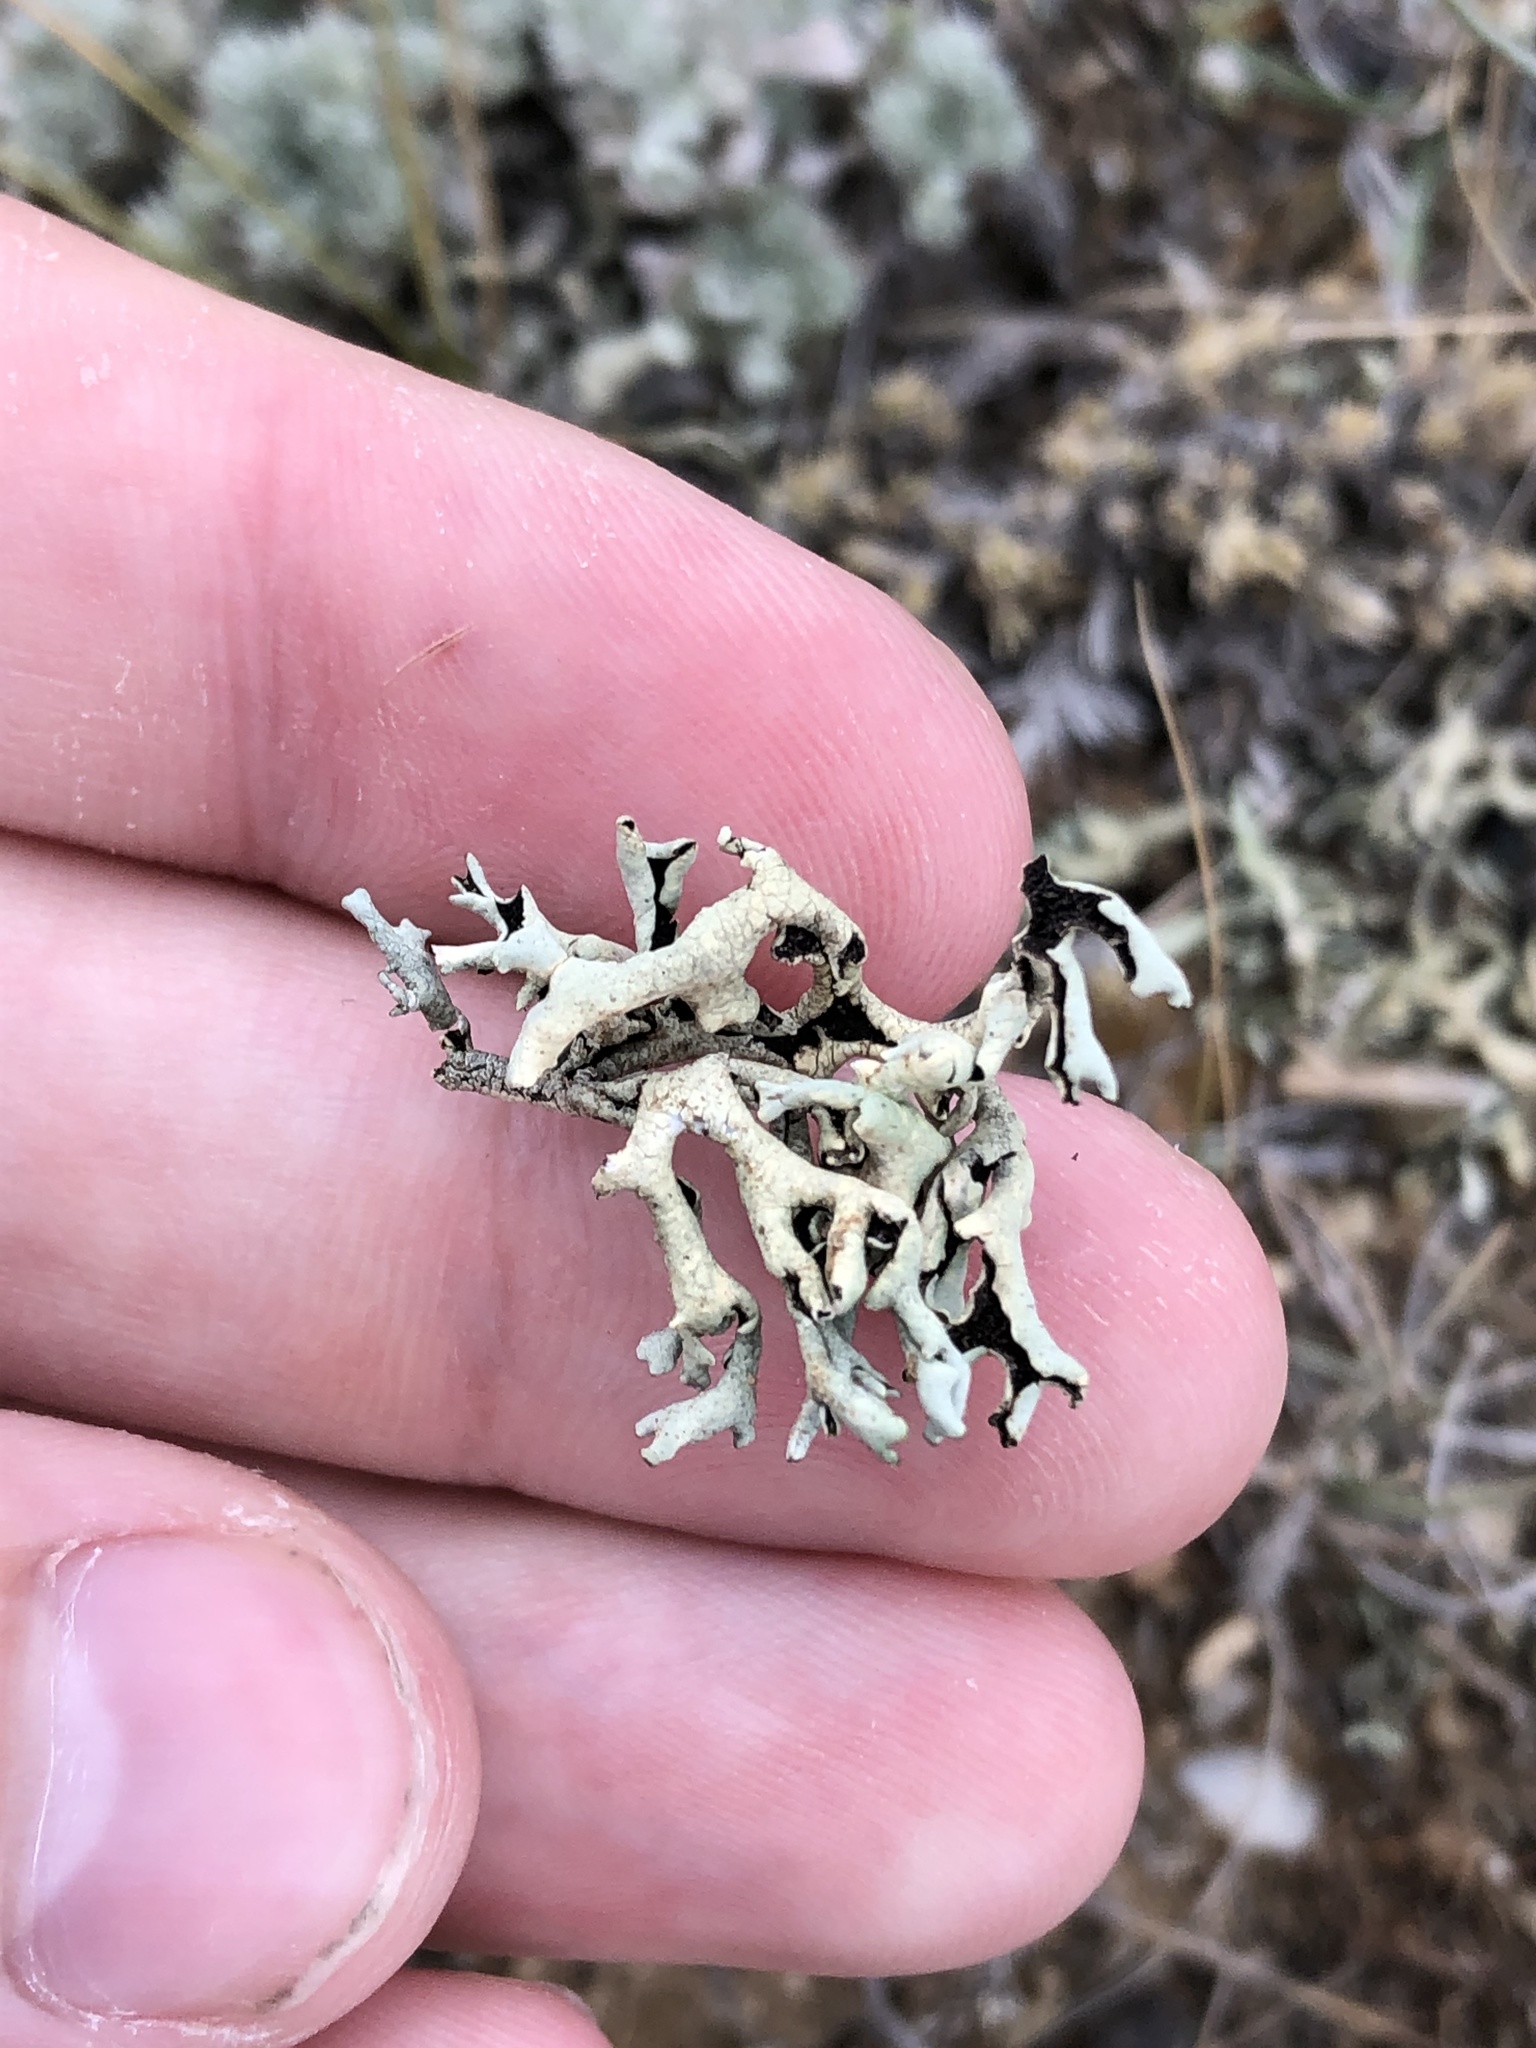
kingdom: Fungi
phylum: Ascomycota
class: Lecanoromycetes
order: Lecanorales
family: Parmeliaceae
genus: Xanthoparmelia
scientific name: Xanthoparmelia chlorochroa
